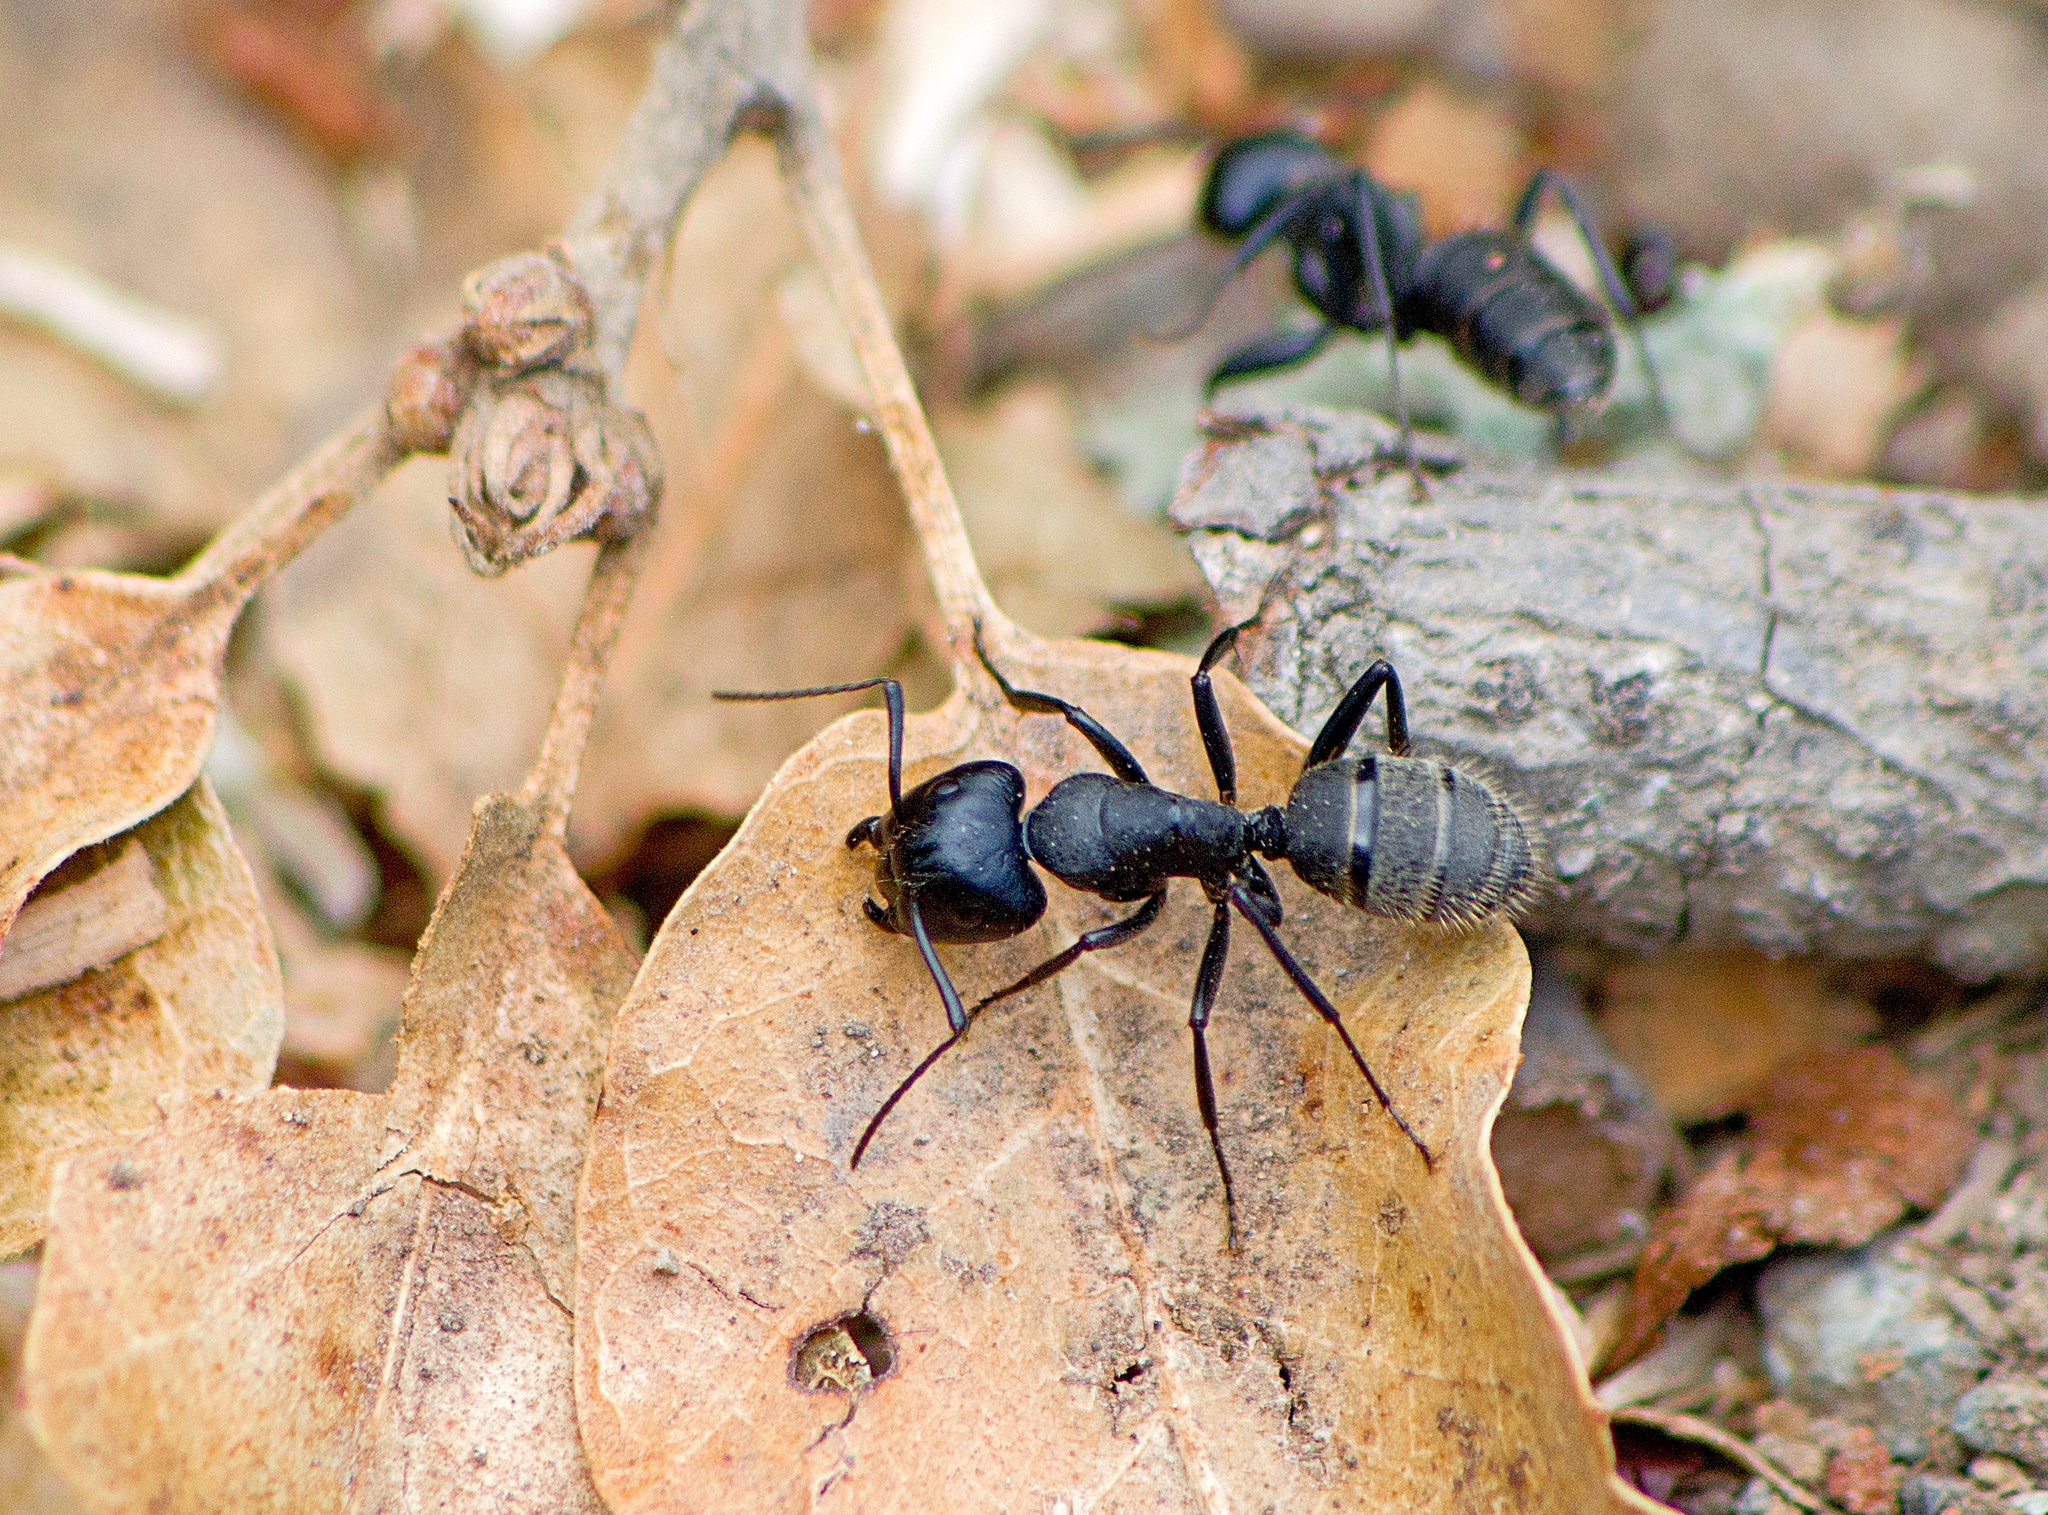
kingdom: Animalia
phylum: Arthropoda
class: Insecta
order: Hymenoptera
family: Formicidae
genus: Camponotus
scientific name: Camponotus vagus
